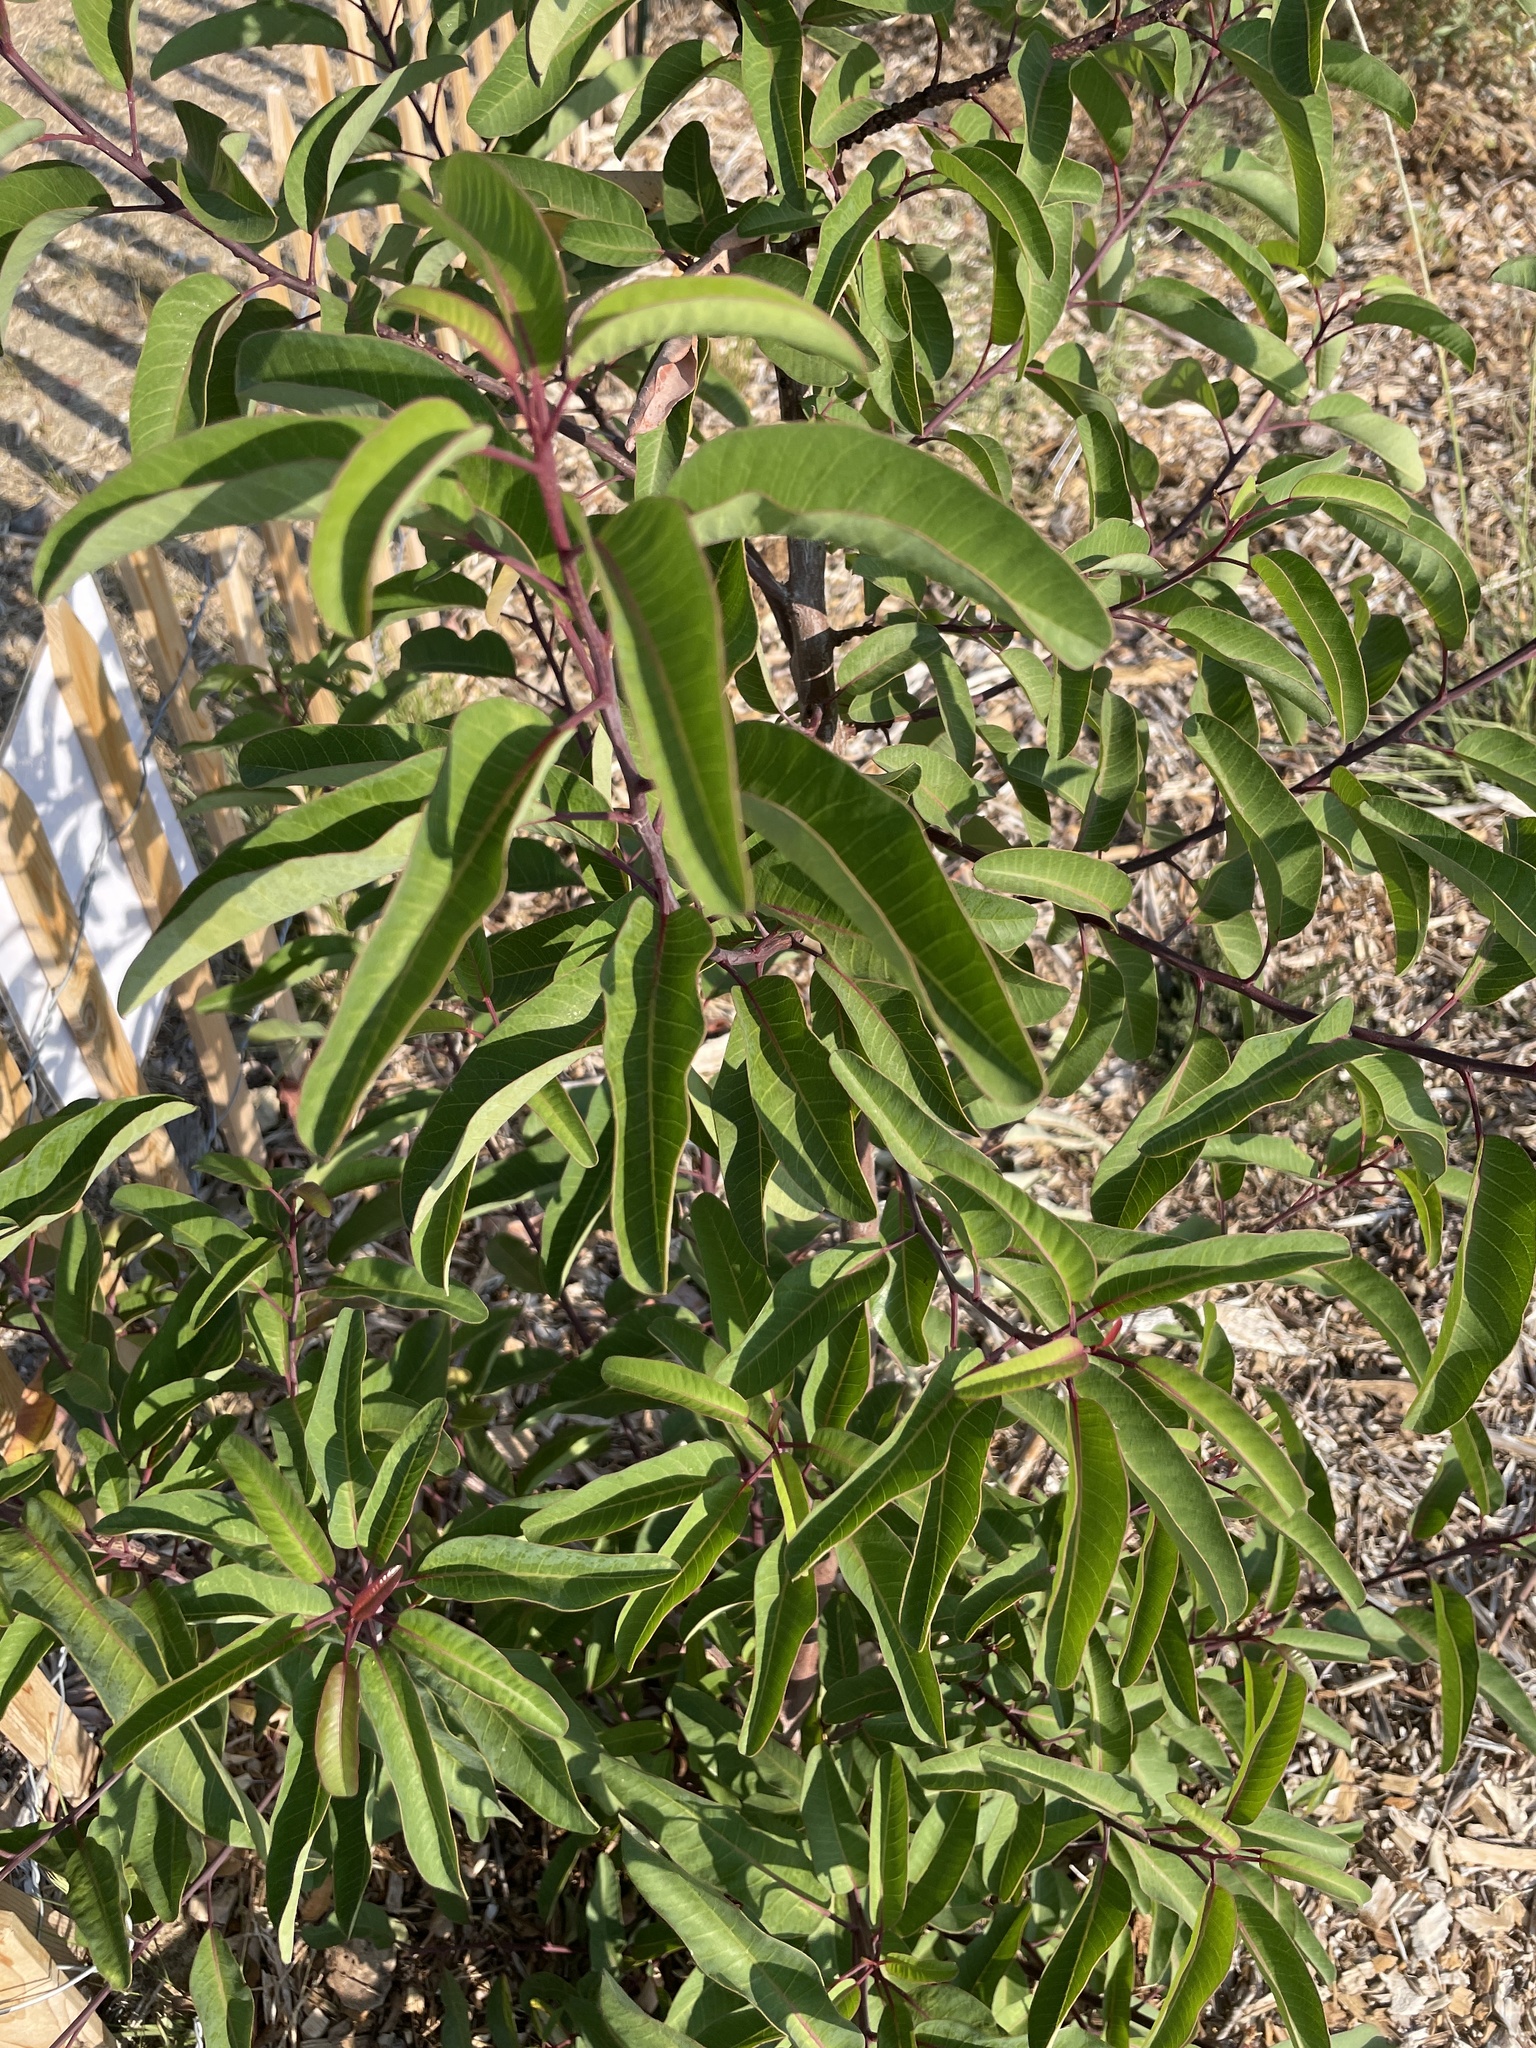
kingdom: Plantae
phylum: Tracheophyta
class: Magnoliopsida
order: Sapindales
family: Anacardiaceae
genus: Malosma
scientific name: Malosma laurina
